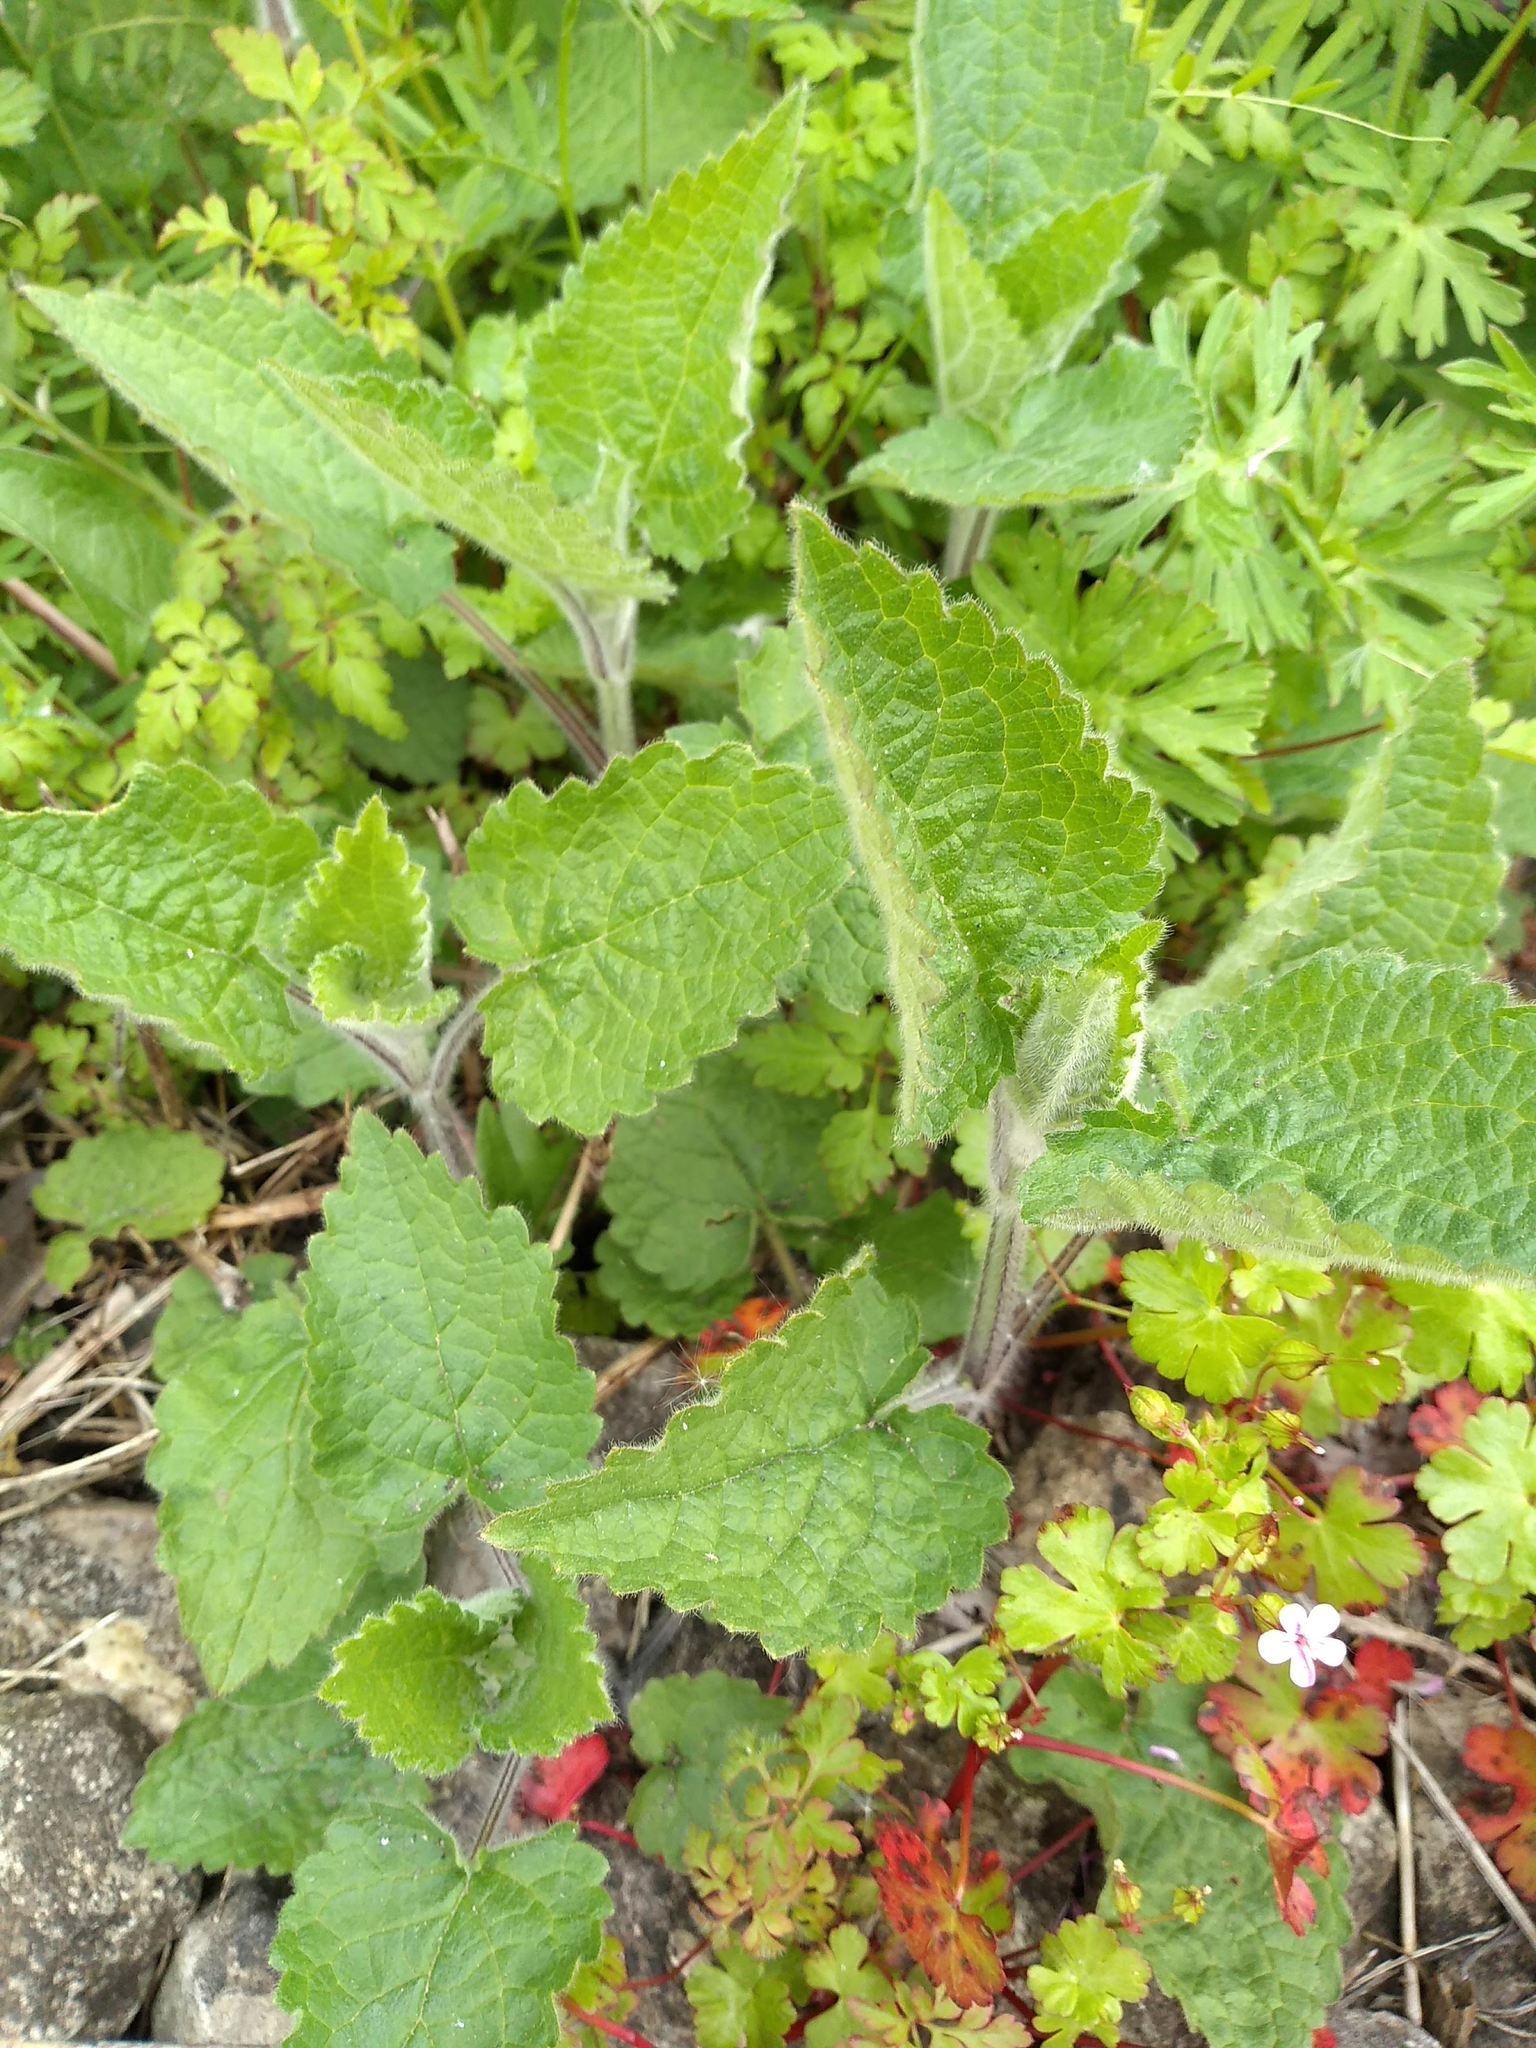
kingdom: Plantae
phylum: Tracheophyta
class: Magnoliopsida
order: Lamiales
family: Lamiaceae
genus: Stachys
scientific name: Stachys sylvatica
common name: Hedge woundwort
